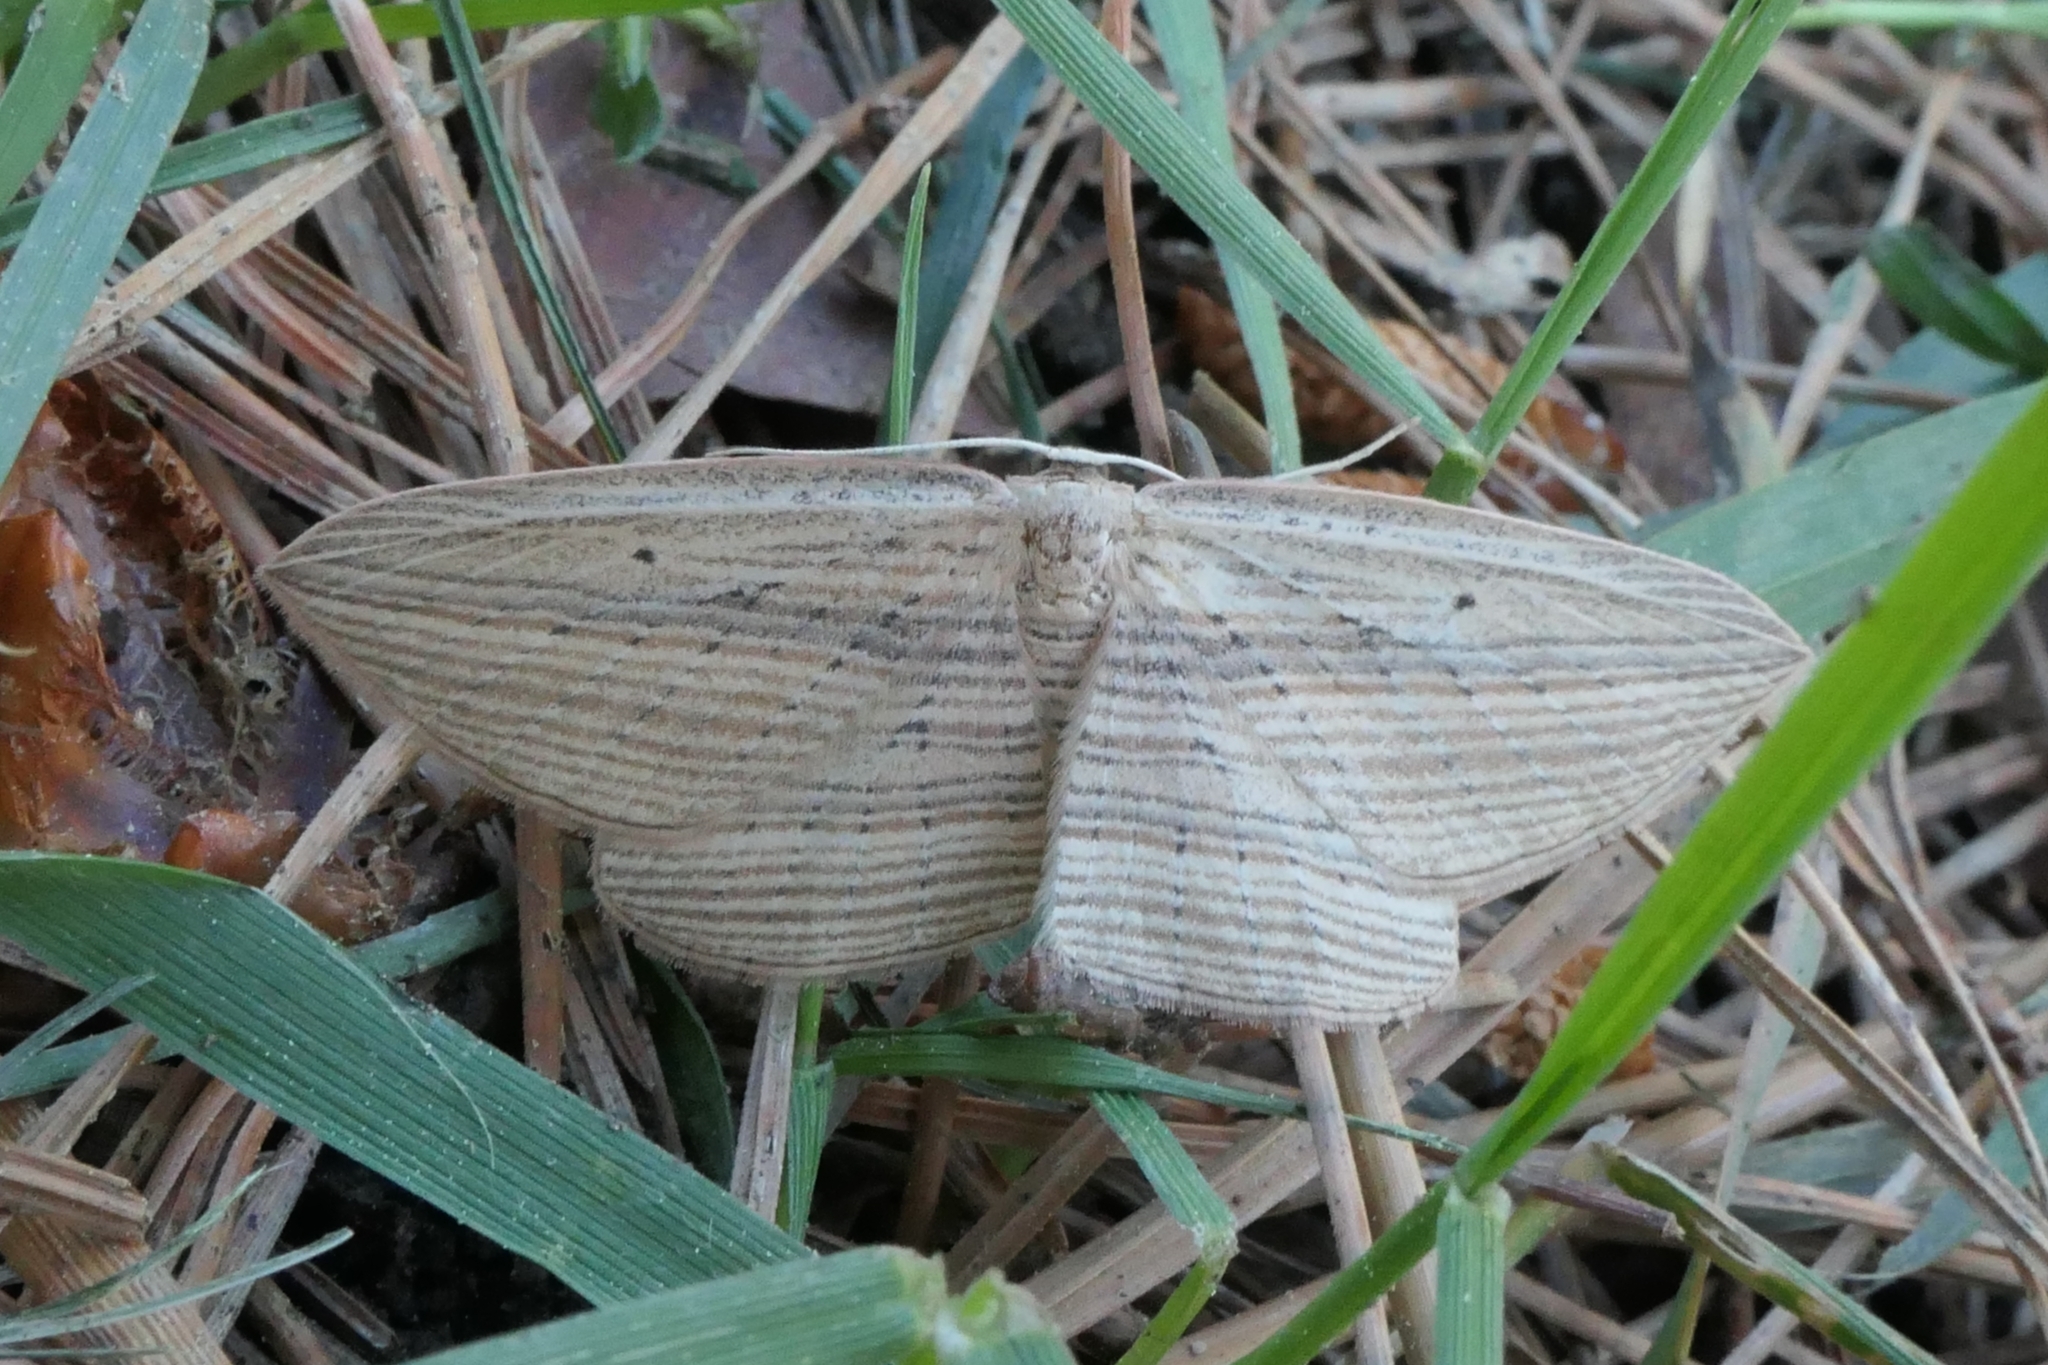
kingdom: Animalia
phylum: Arthropoda
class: Insecta
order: Lepidoptera
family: Geometridae
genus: Epiphryne
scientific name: Epiphryne verriculata
